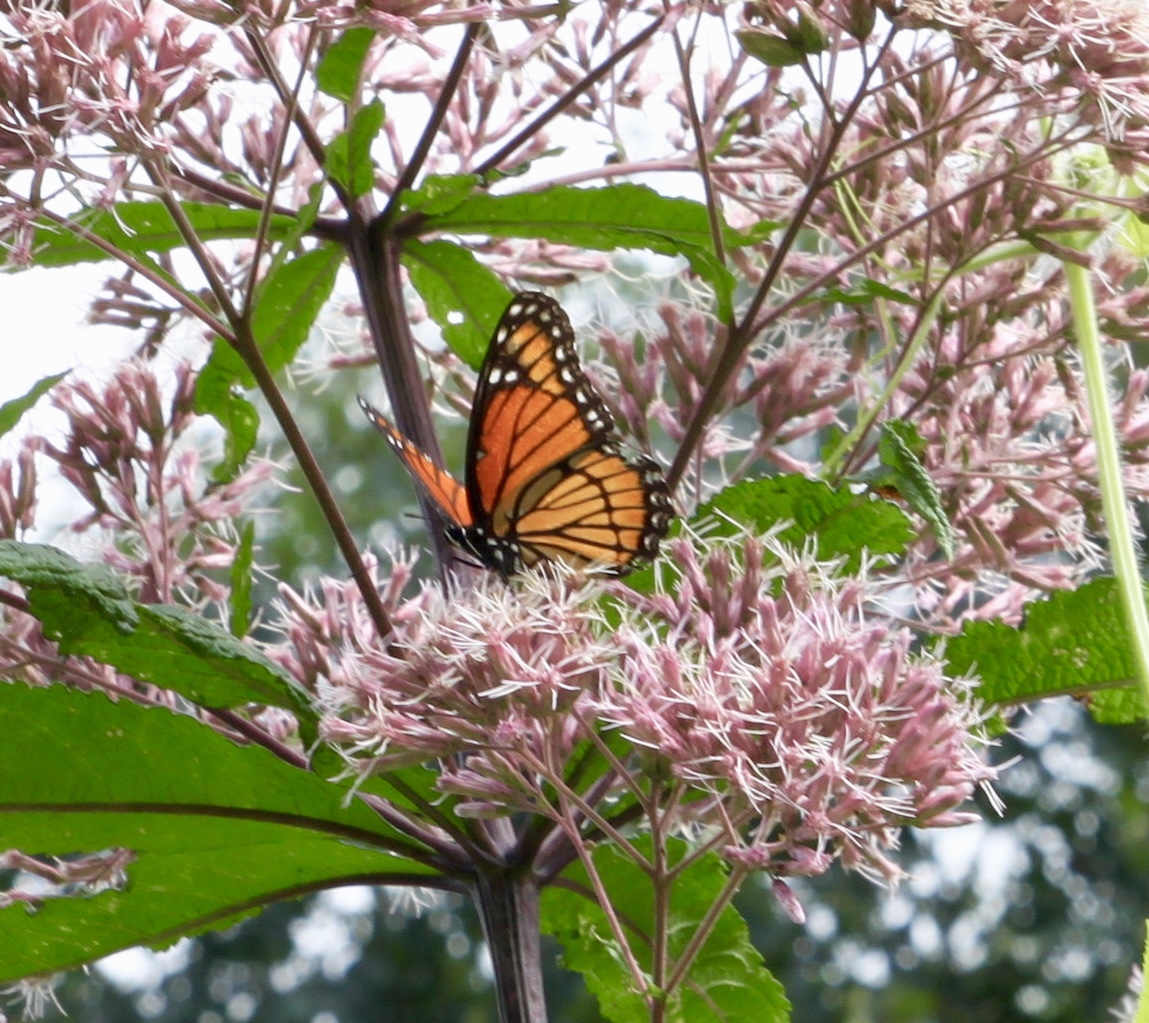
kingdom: Animalia
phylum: Arthropoda
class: Insecta
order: Lepidoptera
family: Nymphalidae
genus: Limenitis
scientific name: Limenitis archippus
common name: Viceroy
